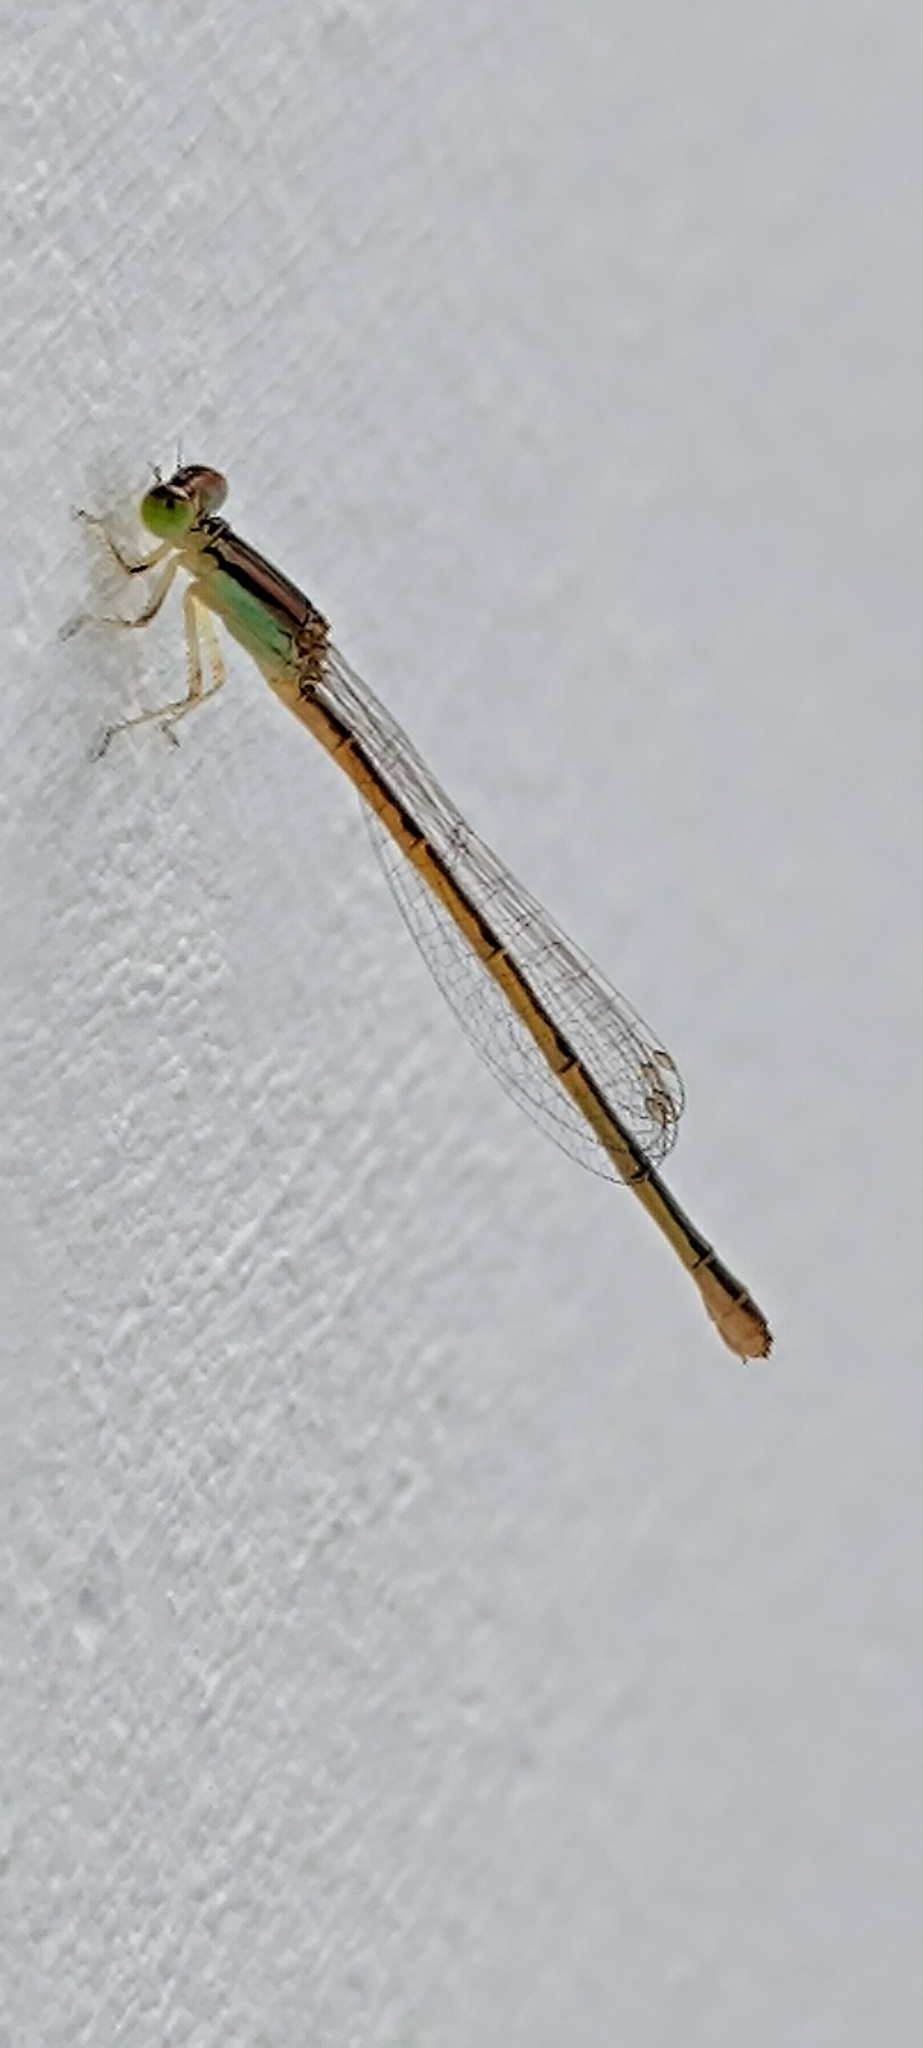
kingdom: Animalia
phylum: Arthropoda
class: Insecta
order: Odonata
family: Coenagrionidae
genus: Ischnura
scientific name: Ischnura rubilio
